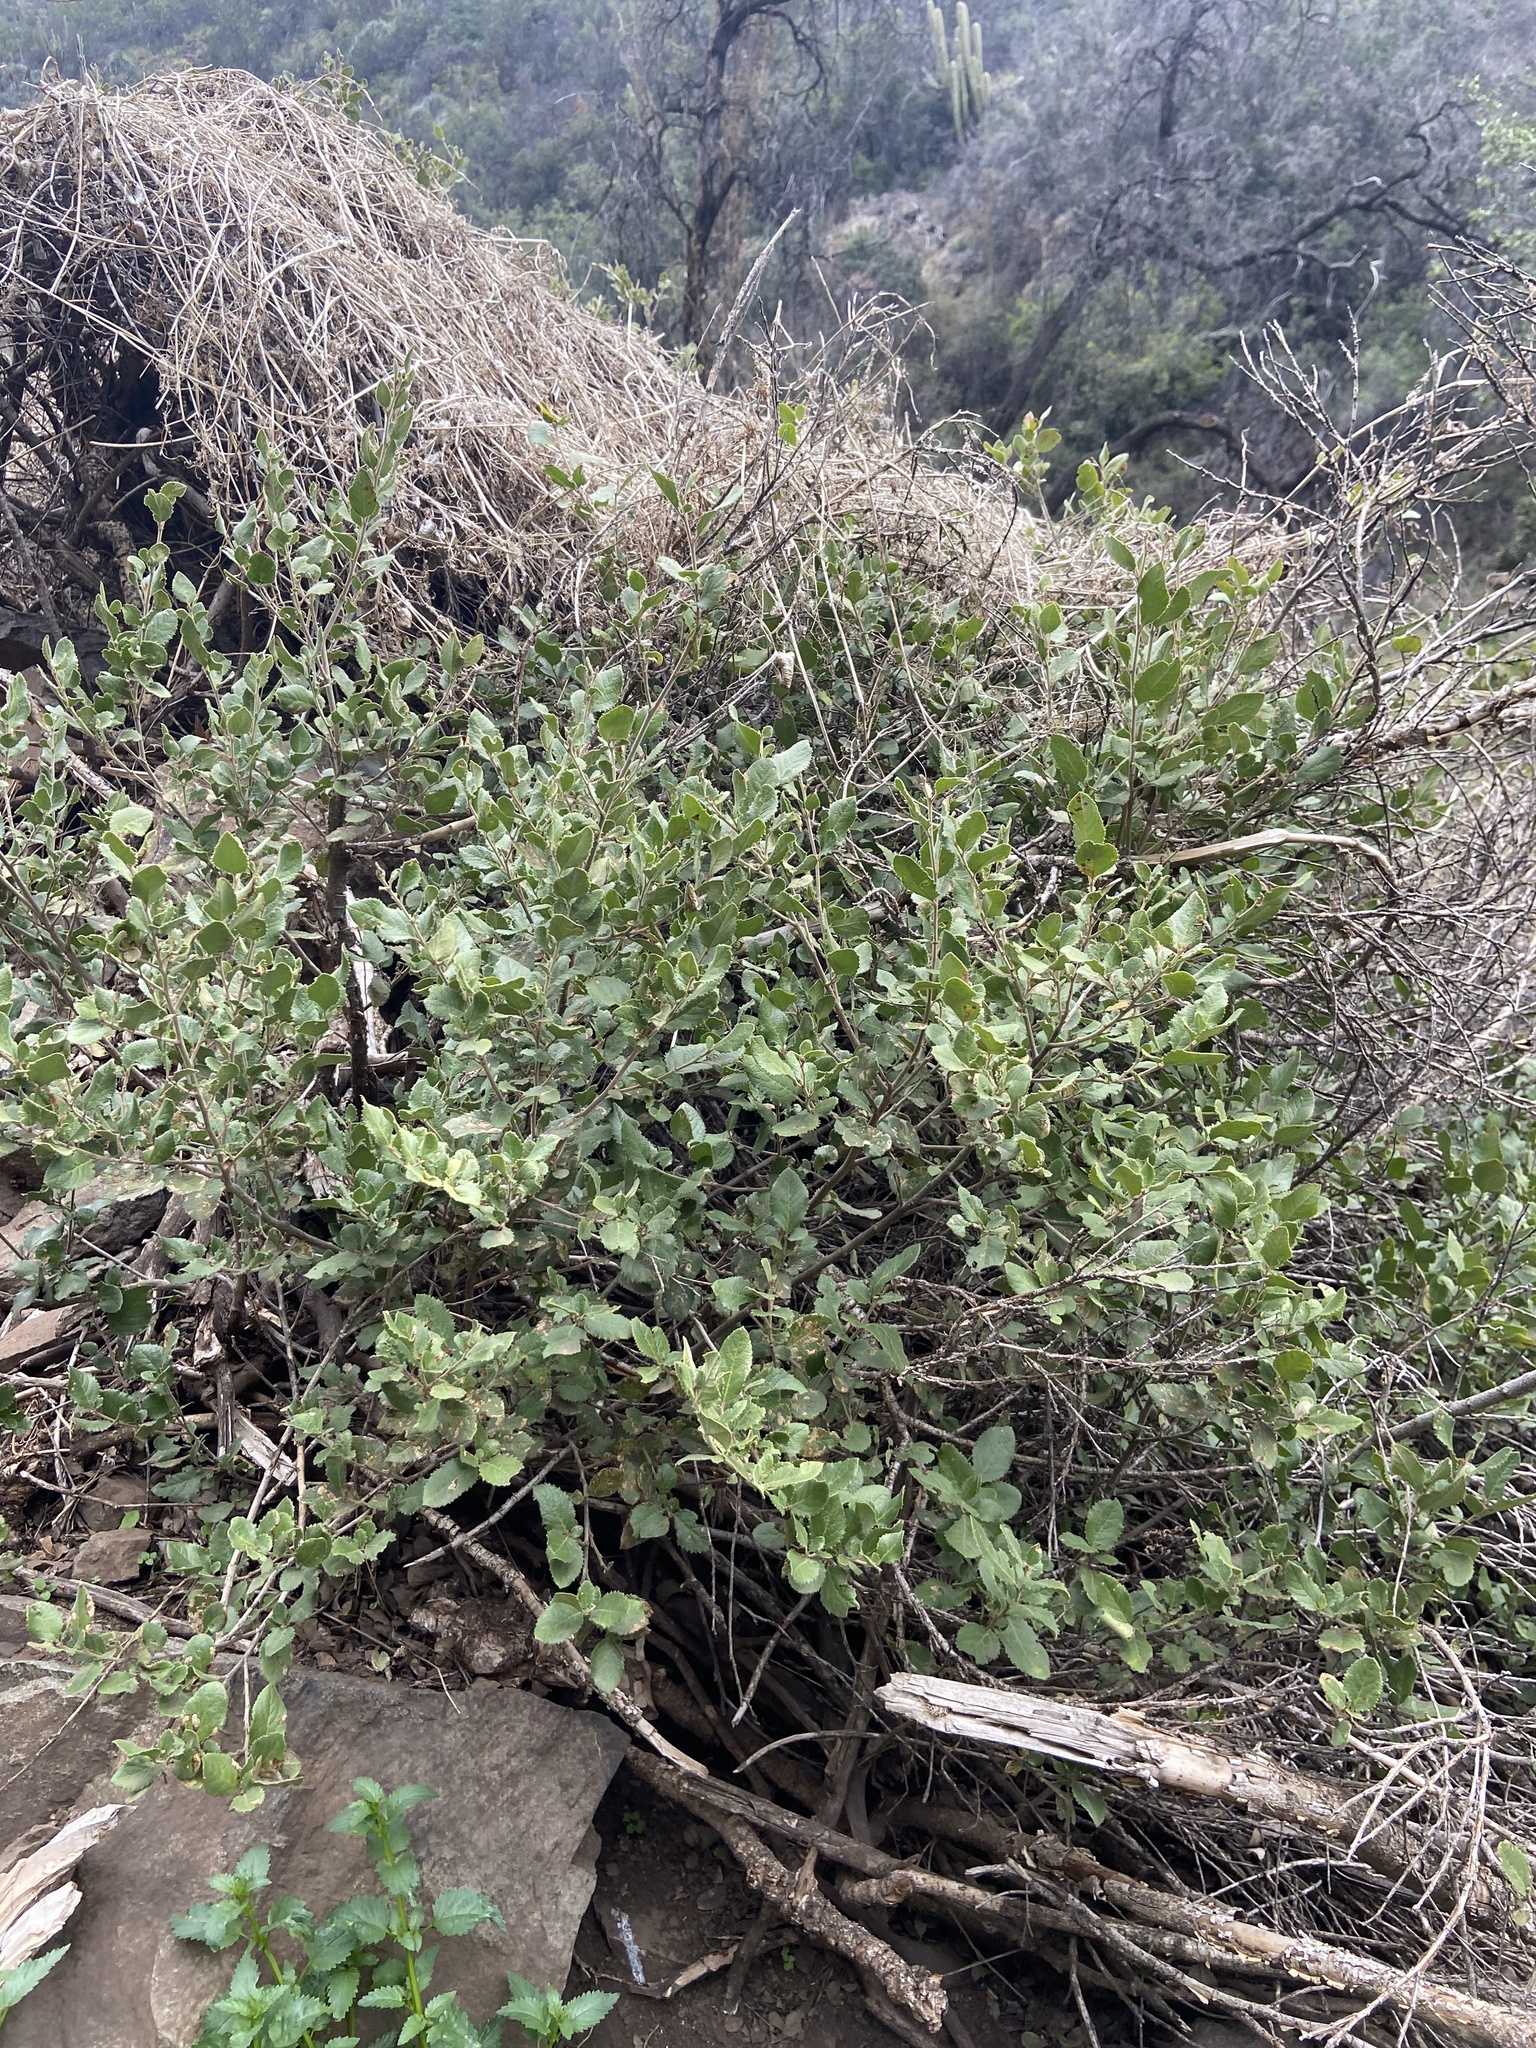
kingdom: Plantae
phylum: Tracheophyta
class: Magnoliopsida
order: Malpighiales
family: Salicaceae
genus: Azara
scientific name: Azara dentata
